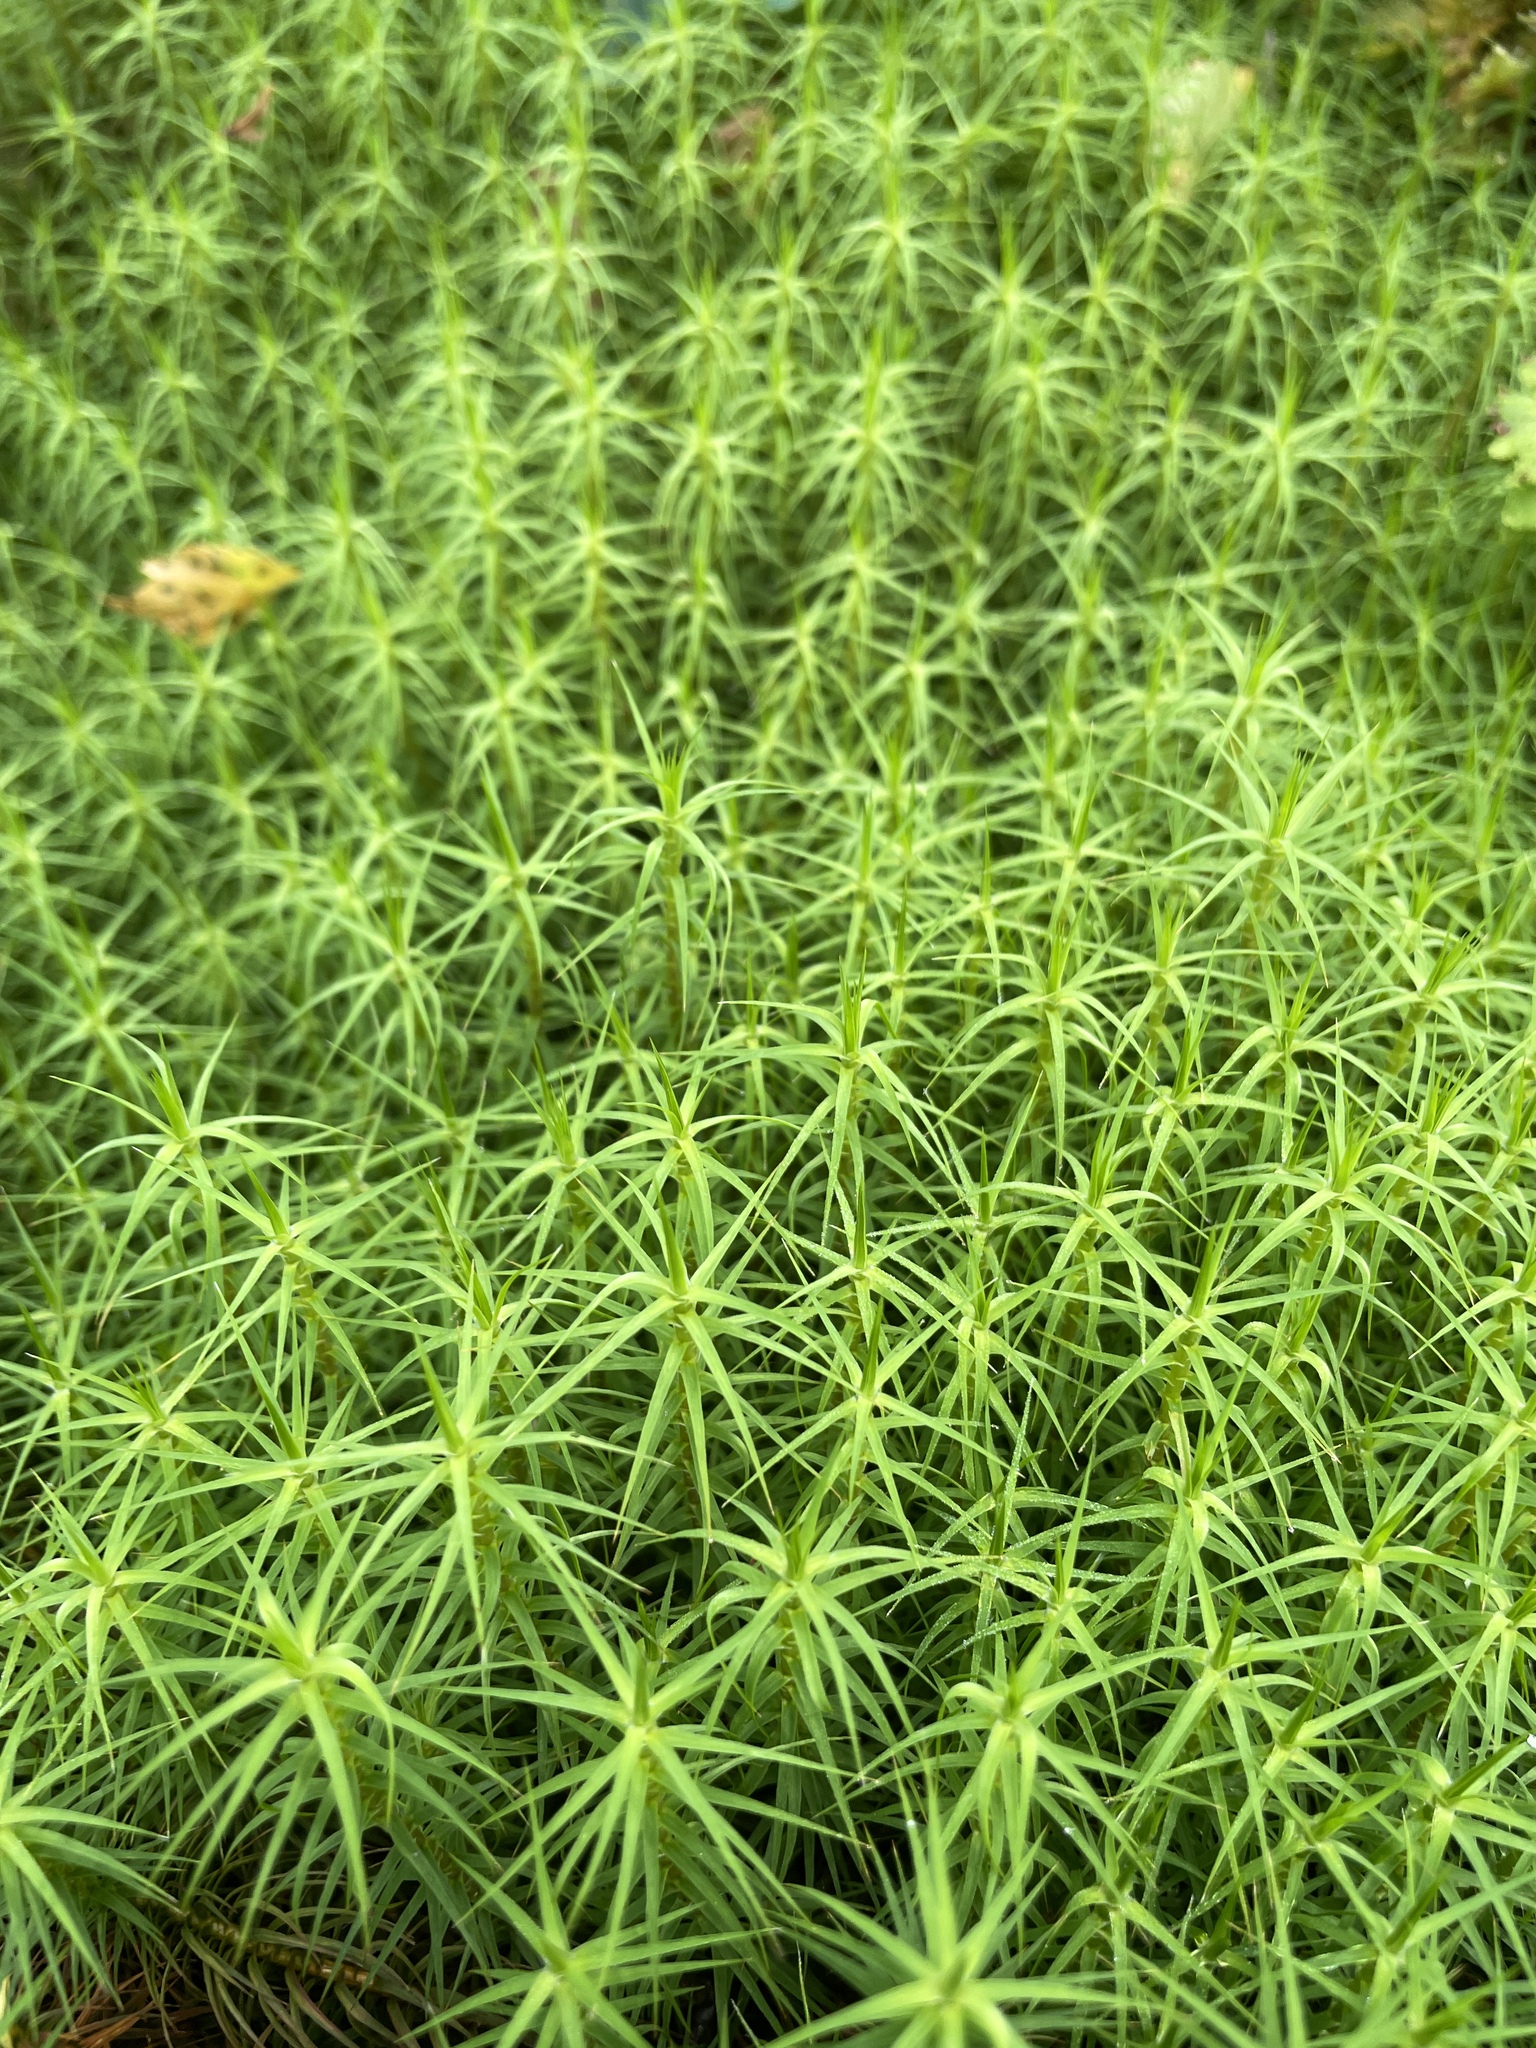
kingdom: Plantae
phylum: Bryophyta
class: Polytrichopsida
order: Polytrichales
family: Polytrichaceae
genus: Polytrichum
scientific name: Polytrichum commune
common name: Common haircap
